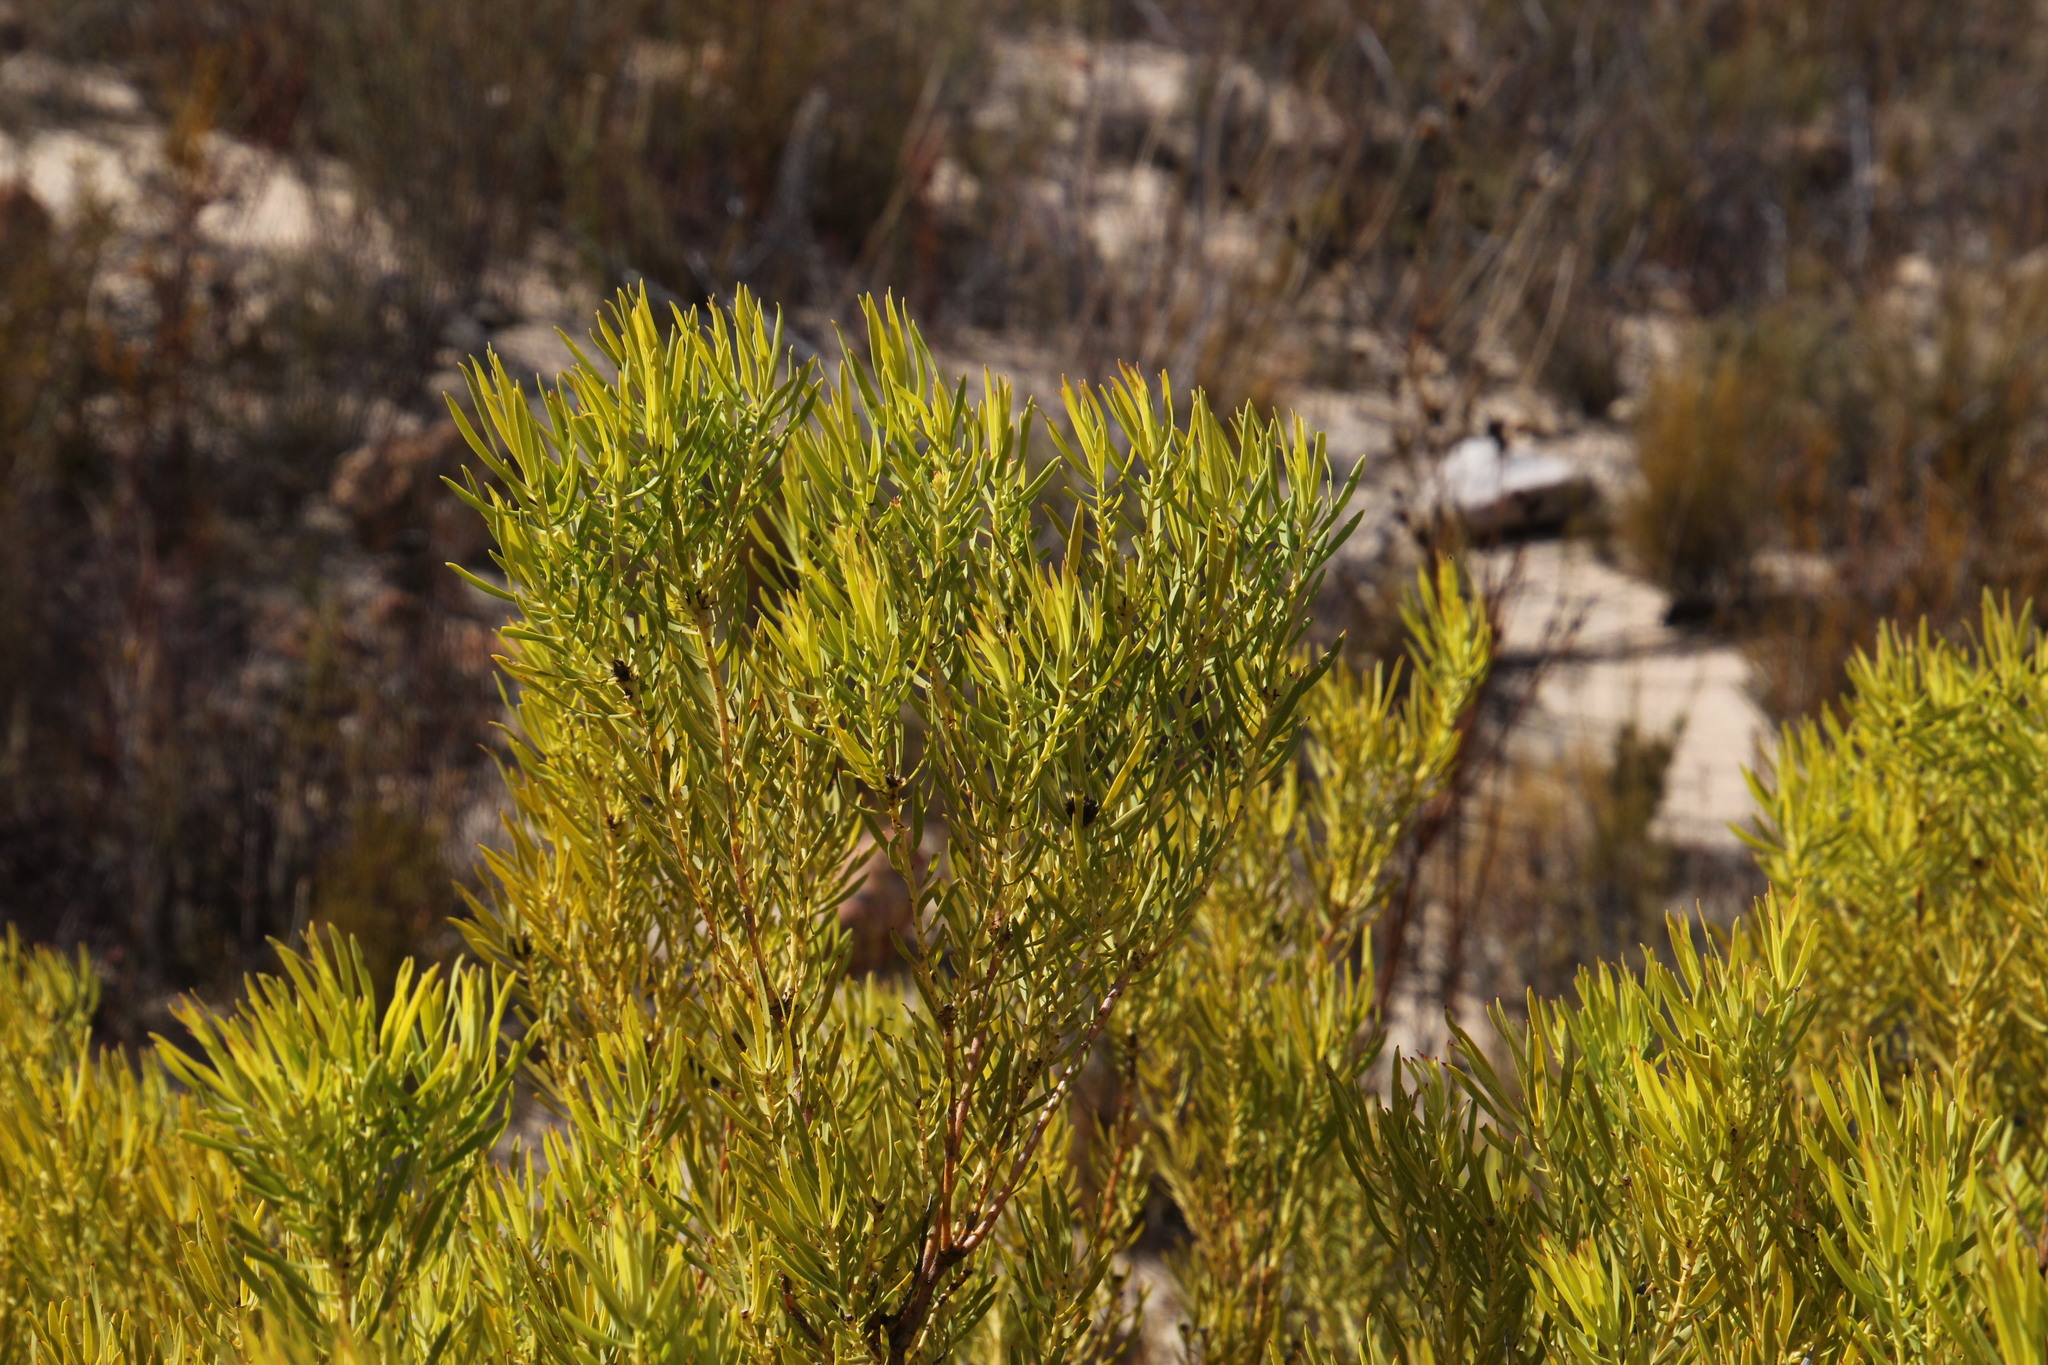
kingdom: Plantae
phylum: Tracheophyta
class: Magnoliopsida
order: Proteales
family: Proteaceae
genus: Leucadendron
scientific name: Leucadendron salignum
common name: Common sunshine conebush
